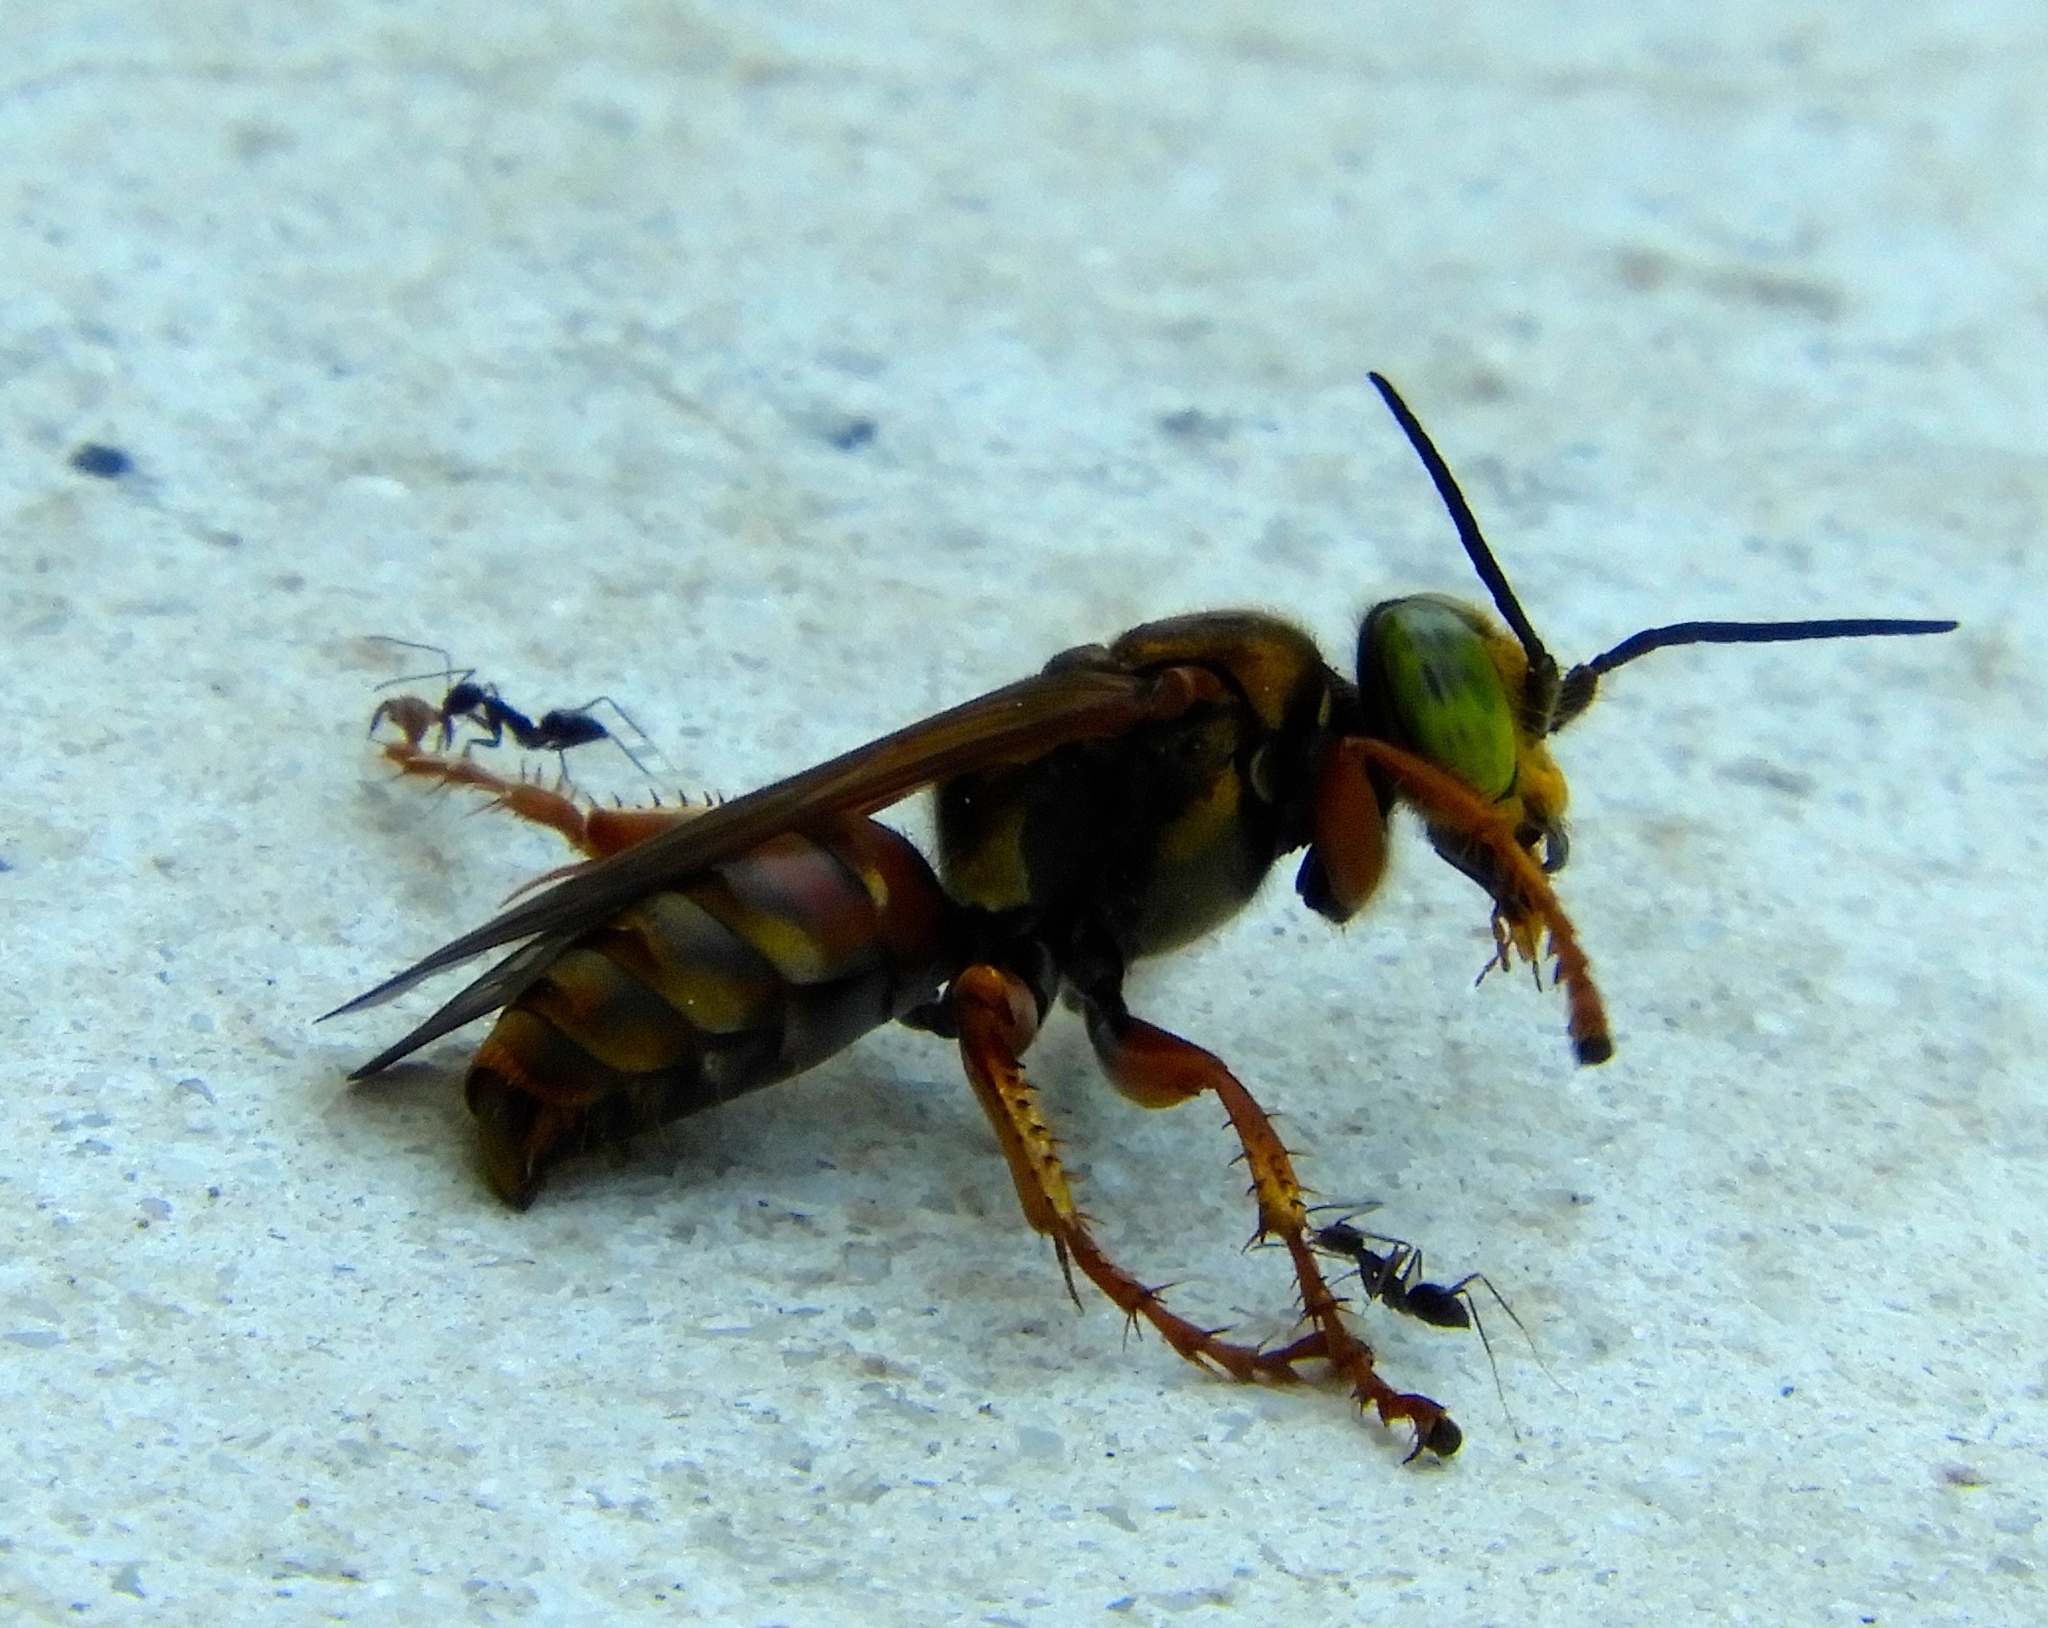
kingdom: Animalia
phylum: Arthropoda
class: Insecta
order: Hymenoptera
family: Formicidae
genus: Paratrechina
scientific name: Paratrechina longicornis
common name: Longhorned crazy ant
